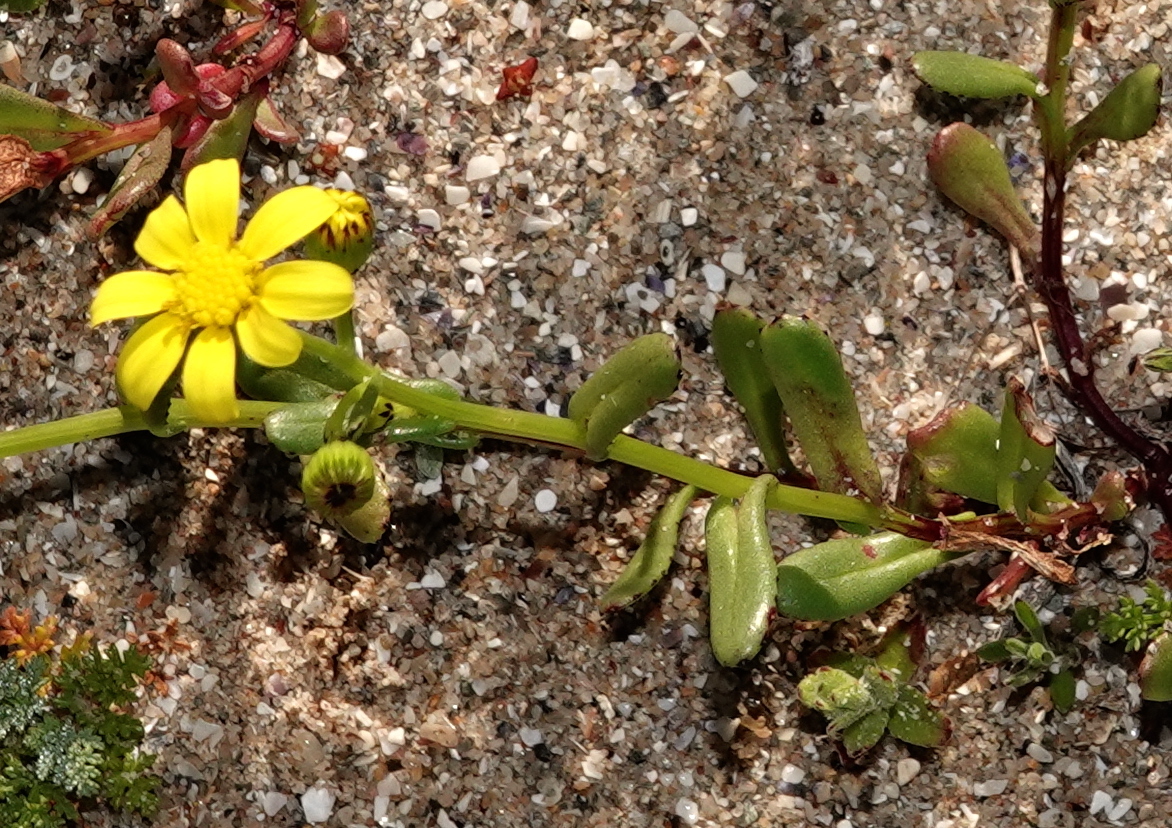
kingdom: Plantae
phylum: Tracheophyta
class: Magnoliopsida
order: Asterales
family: Asteraceae
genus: Senecio
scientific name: Senecio maritimus
